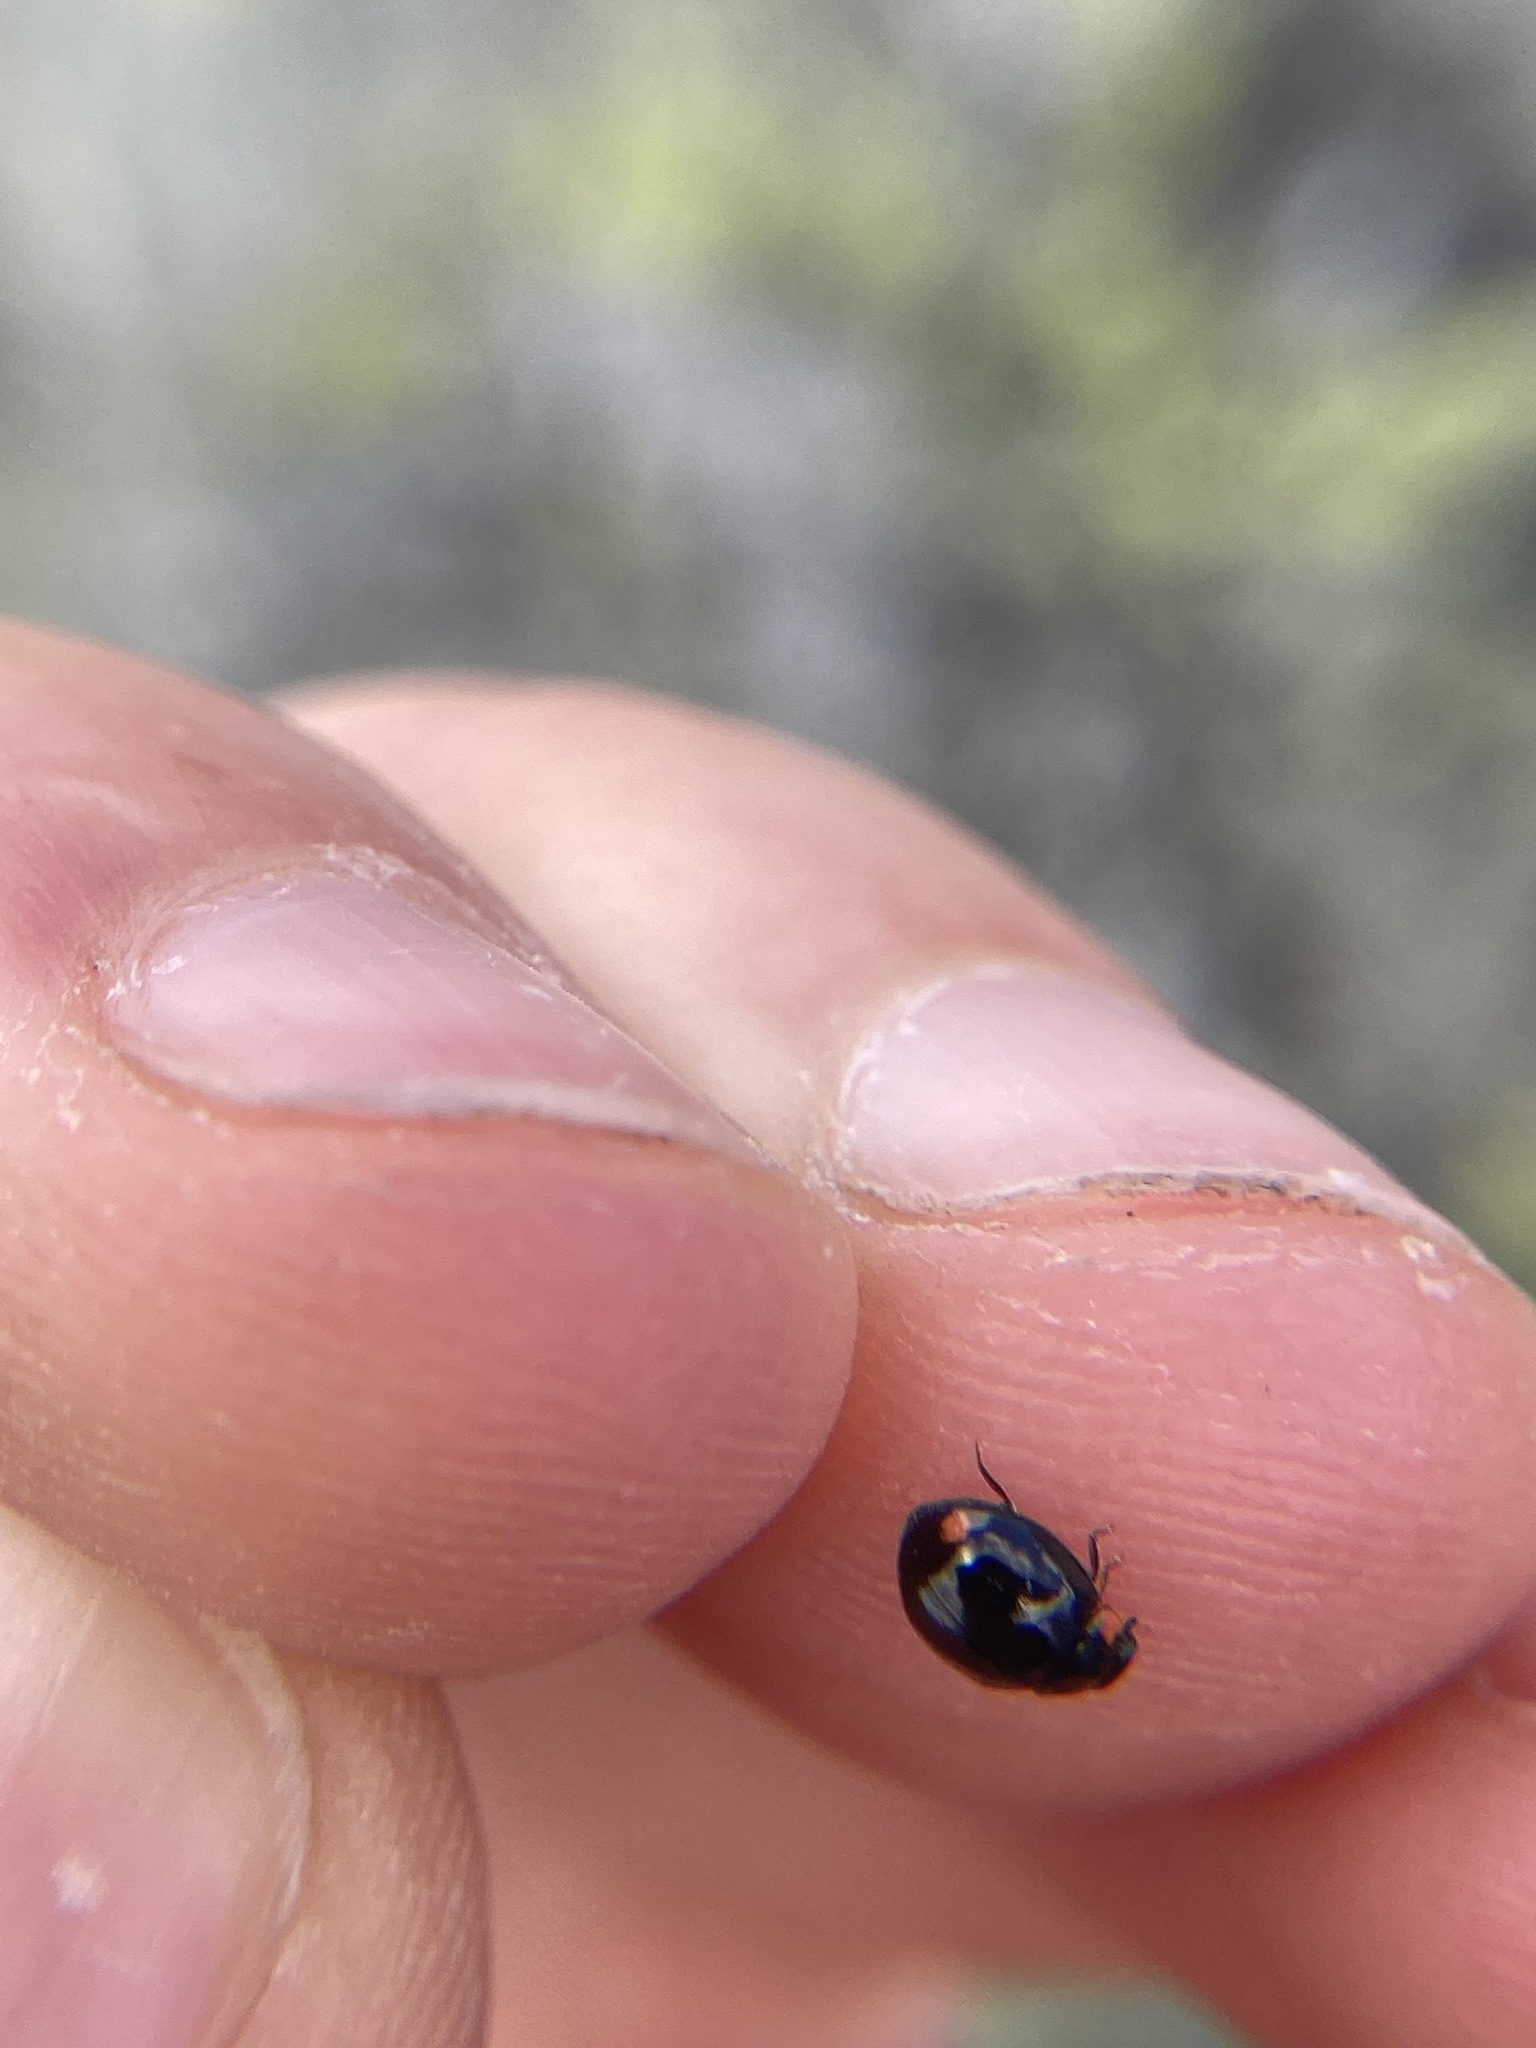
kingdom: Animalia
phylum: Arthropoda
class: Insecta
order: Coleoptera
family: Coccinellidae
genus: Hyperaspis
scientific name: Hyperaspis bigeminata
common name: Bigeminate sigil lady beetle
